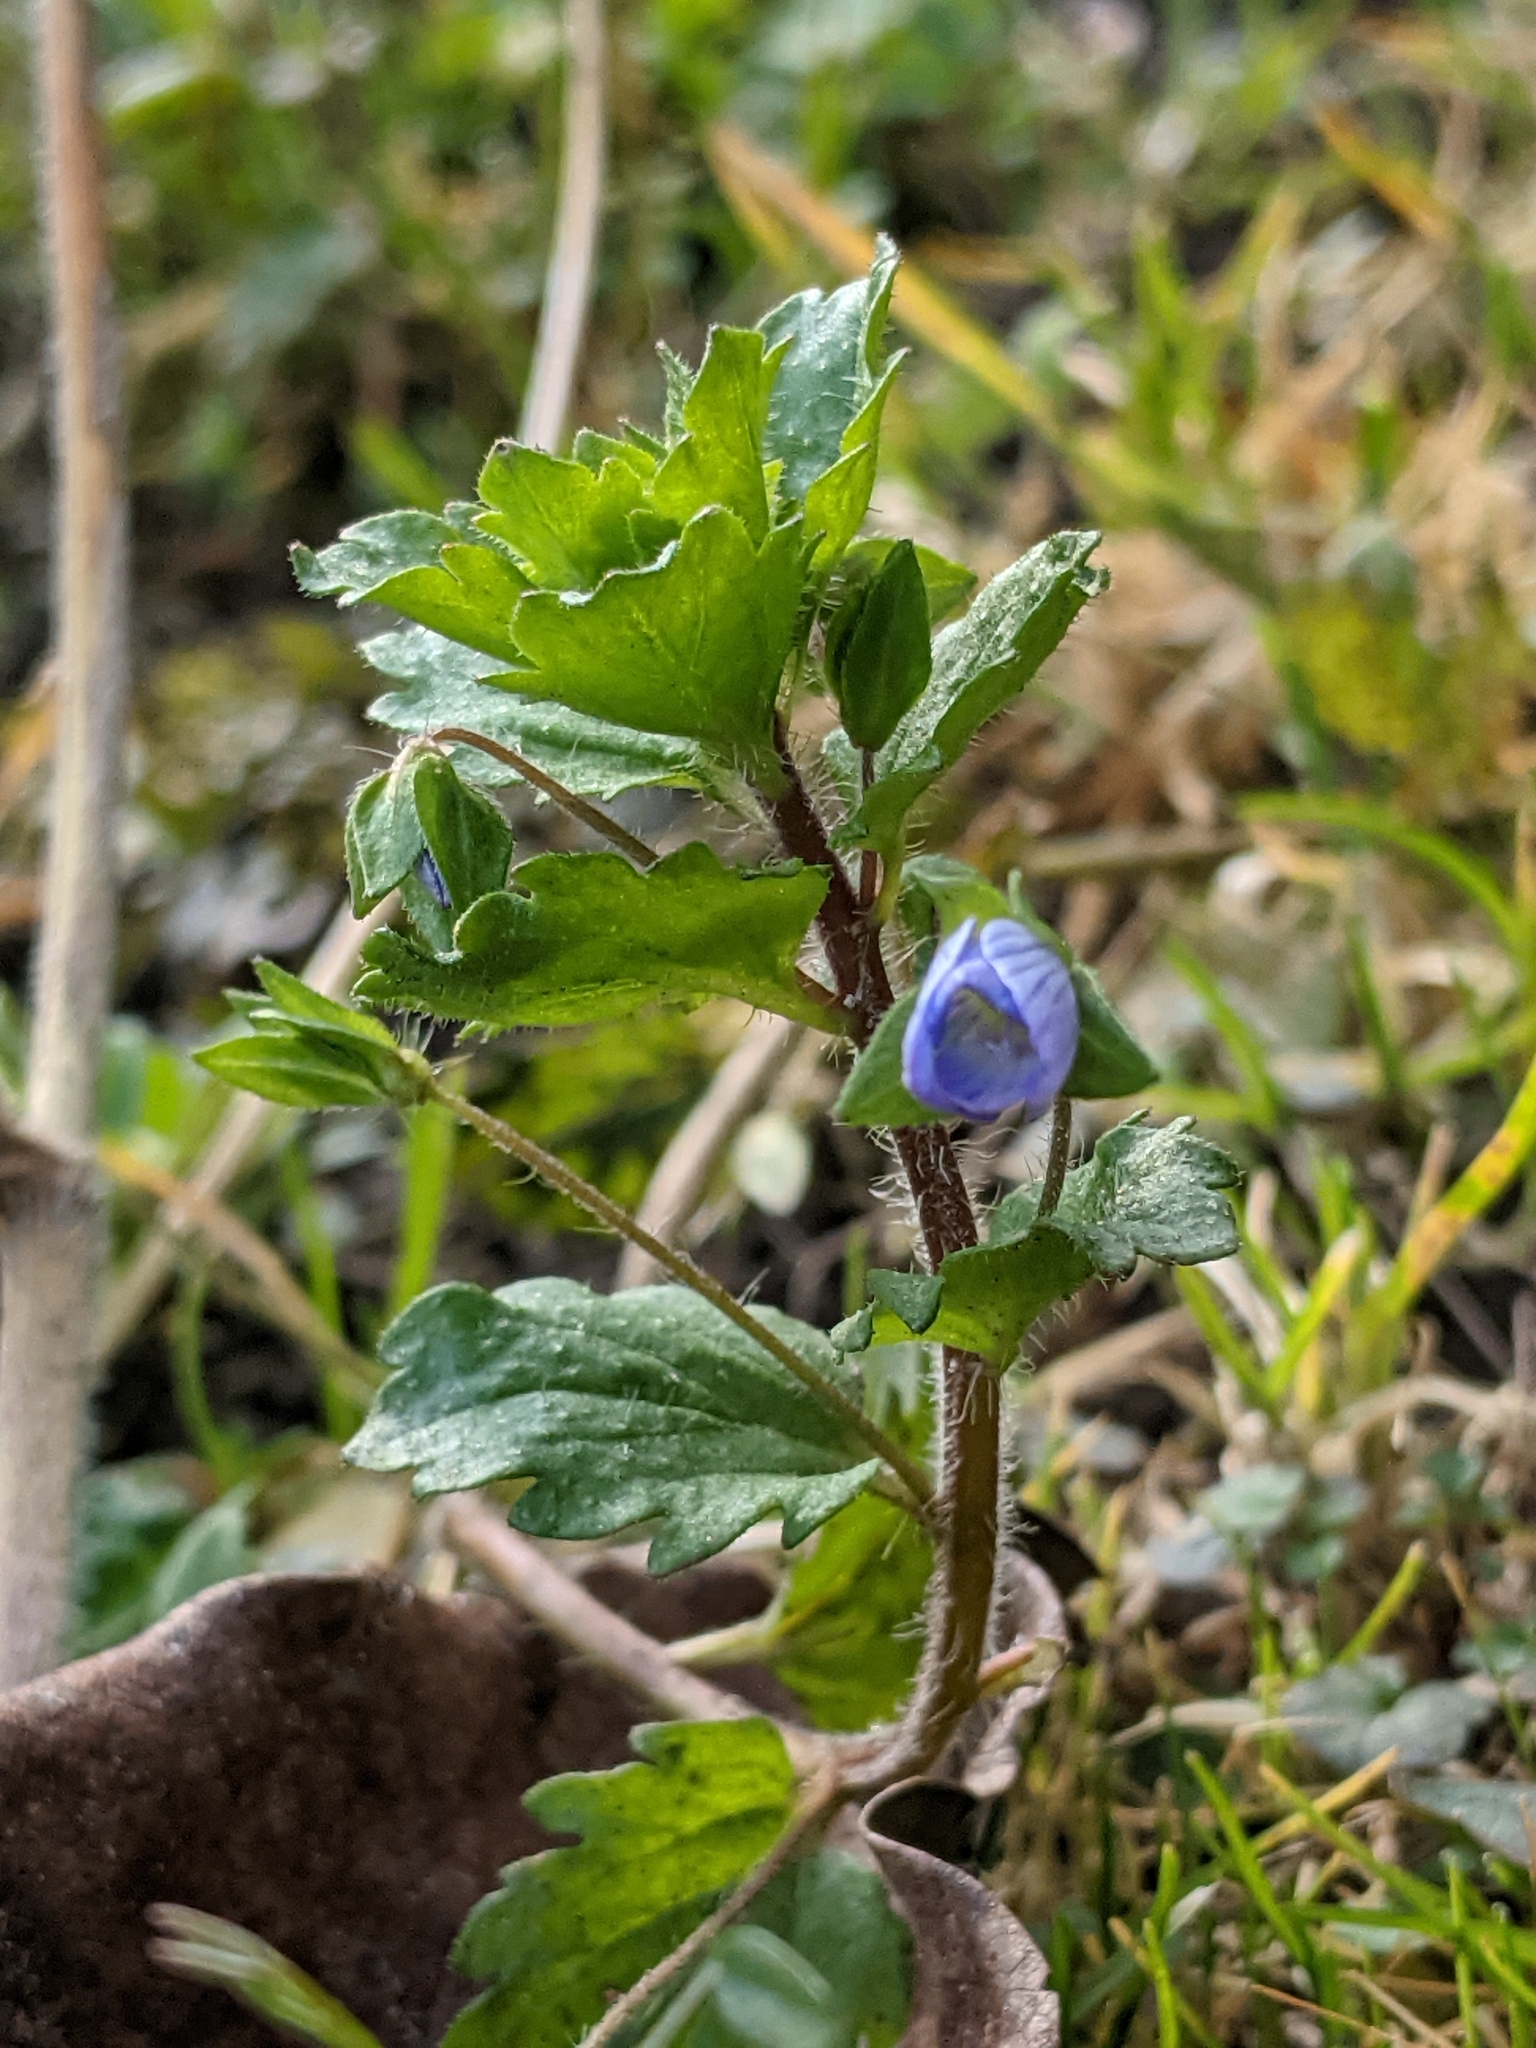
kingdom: Plantae
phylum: Tracheophyta
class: Magnoliopsida
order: Lamiales
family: Plantaginaceae
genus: Veronica
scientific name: Veronica persica
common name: Common field-speedwell
